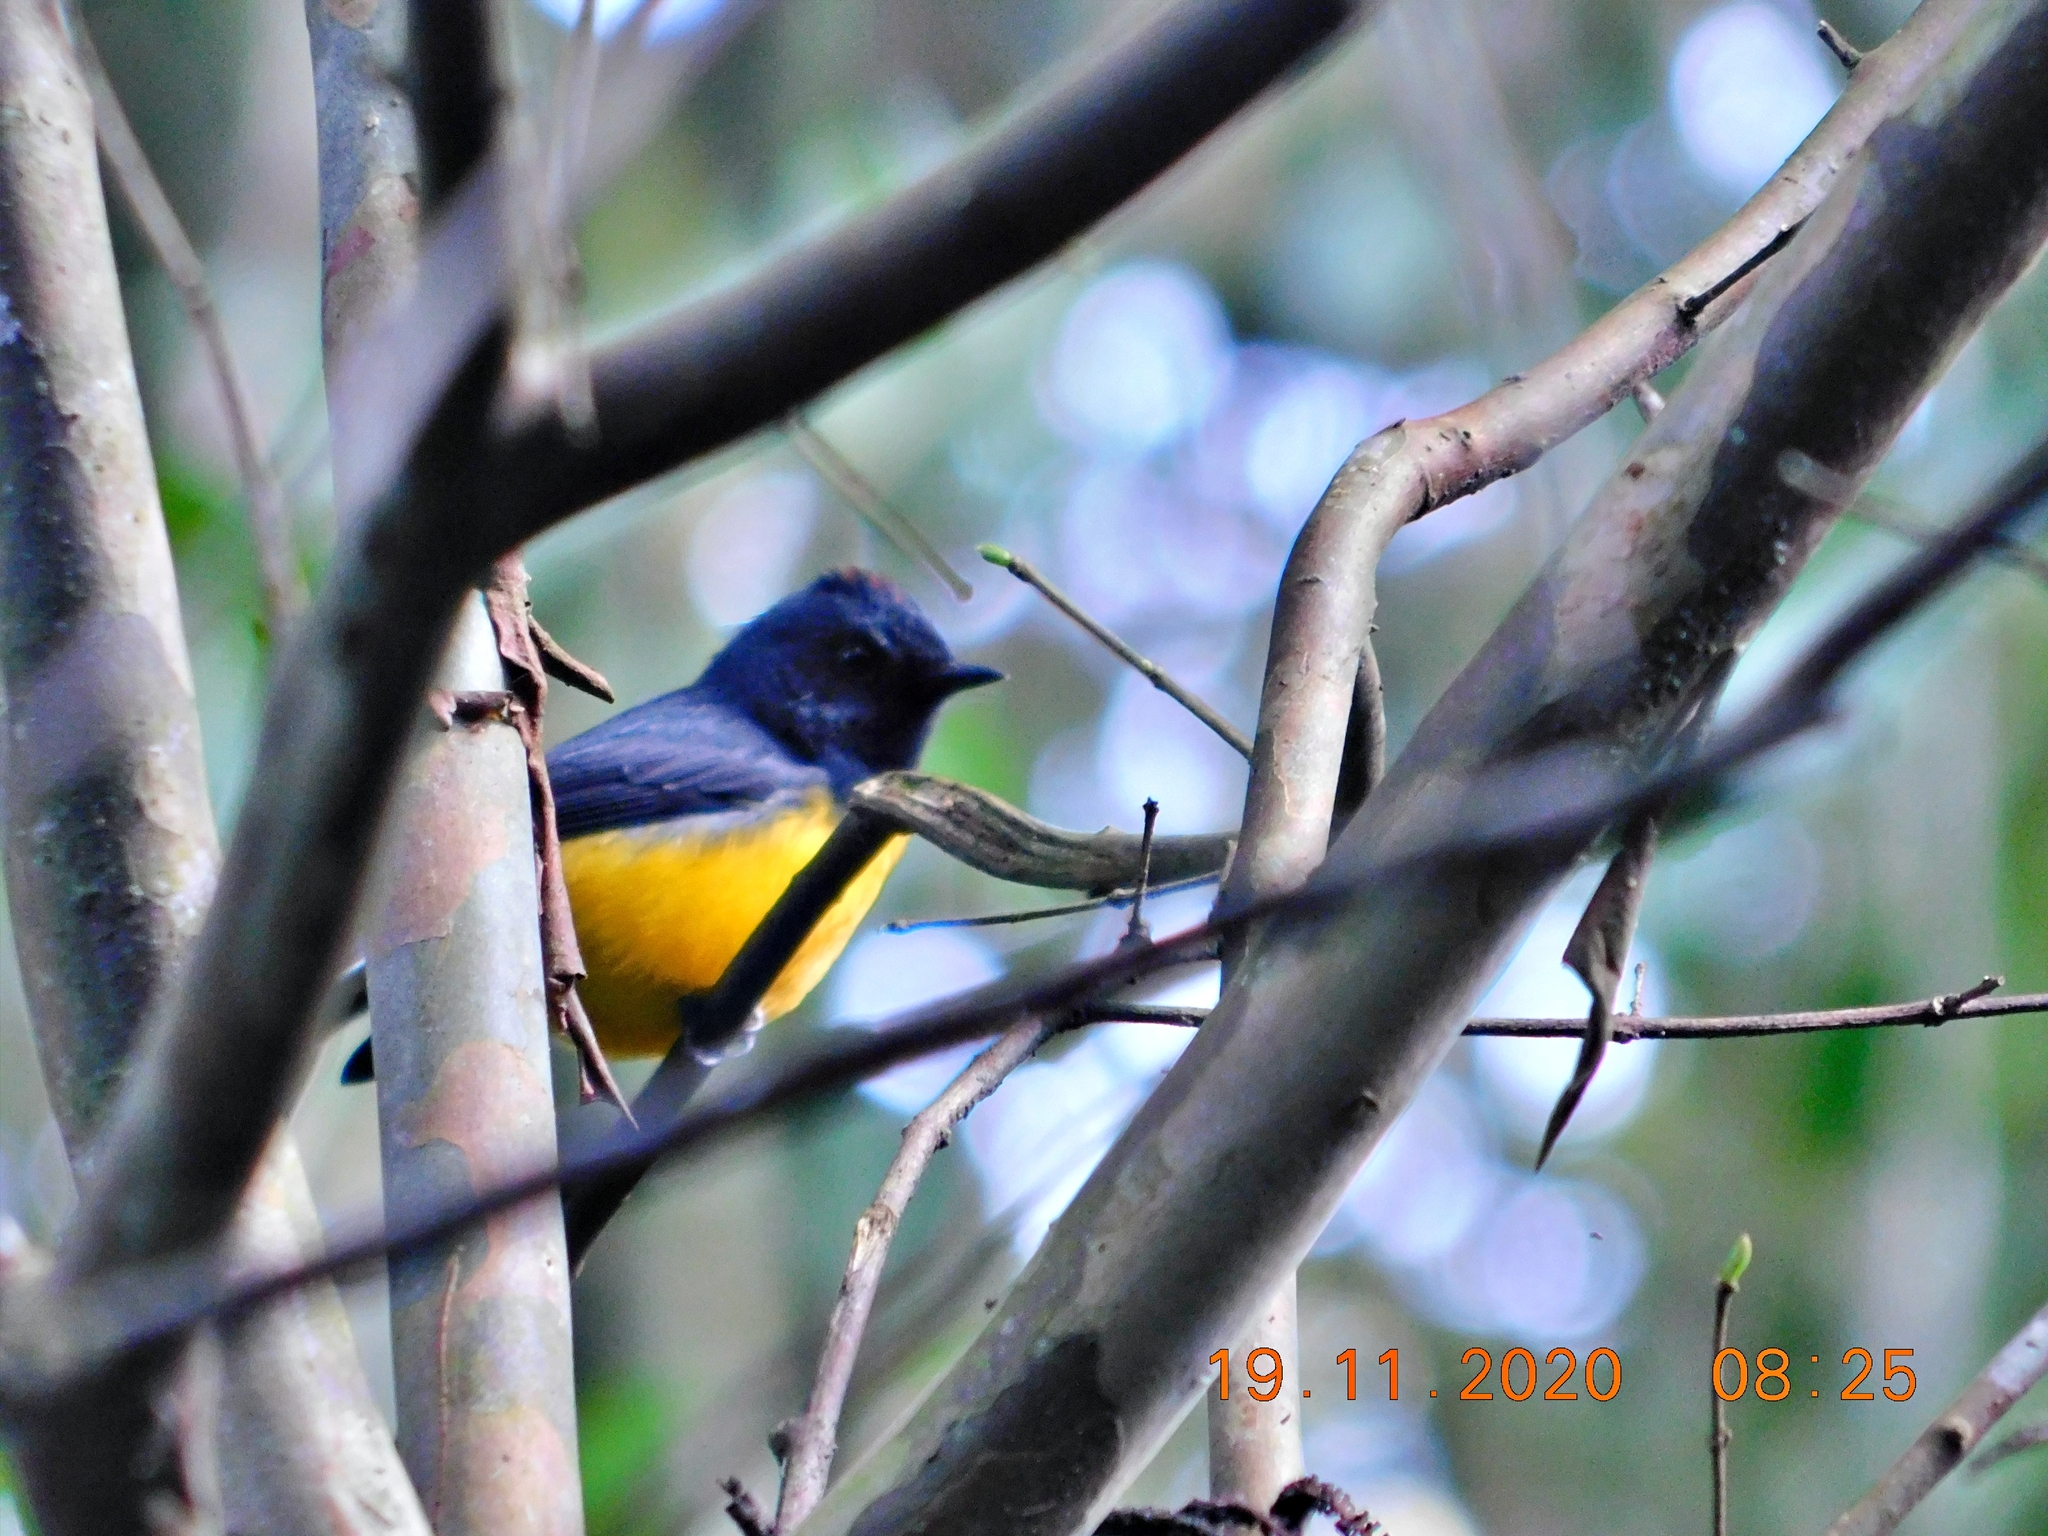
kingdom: Animalia
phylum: Chordata
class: Aves
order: Passeriformes
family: Parulidae
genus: Myioborus
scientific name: Myioborus miniatus
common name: Slate-throated redstart
